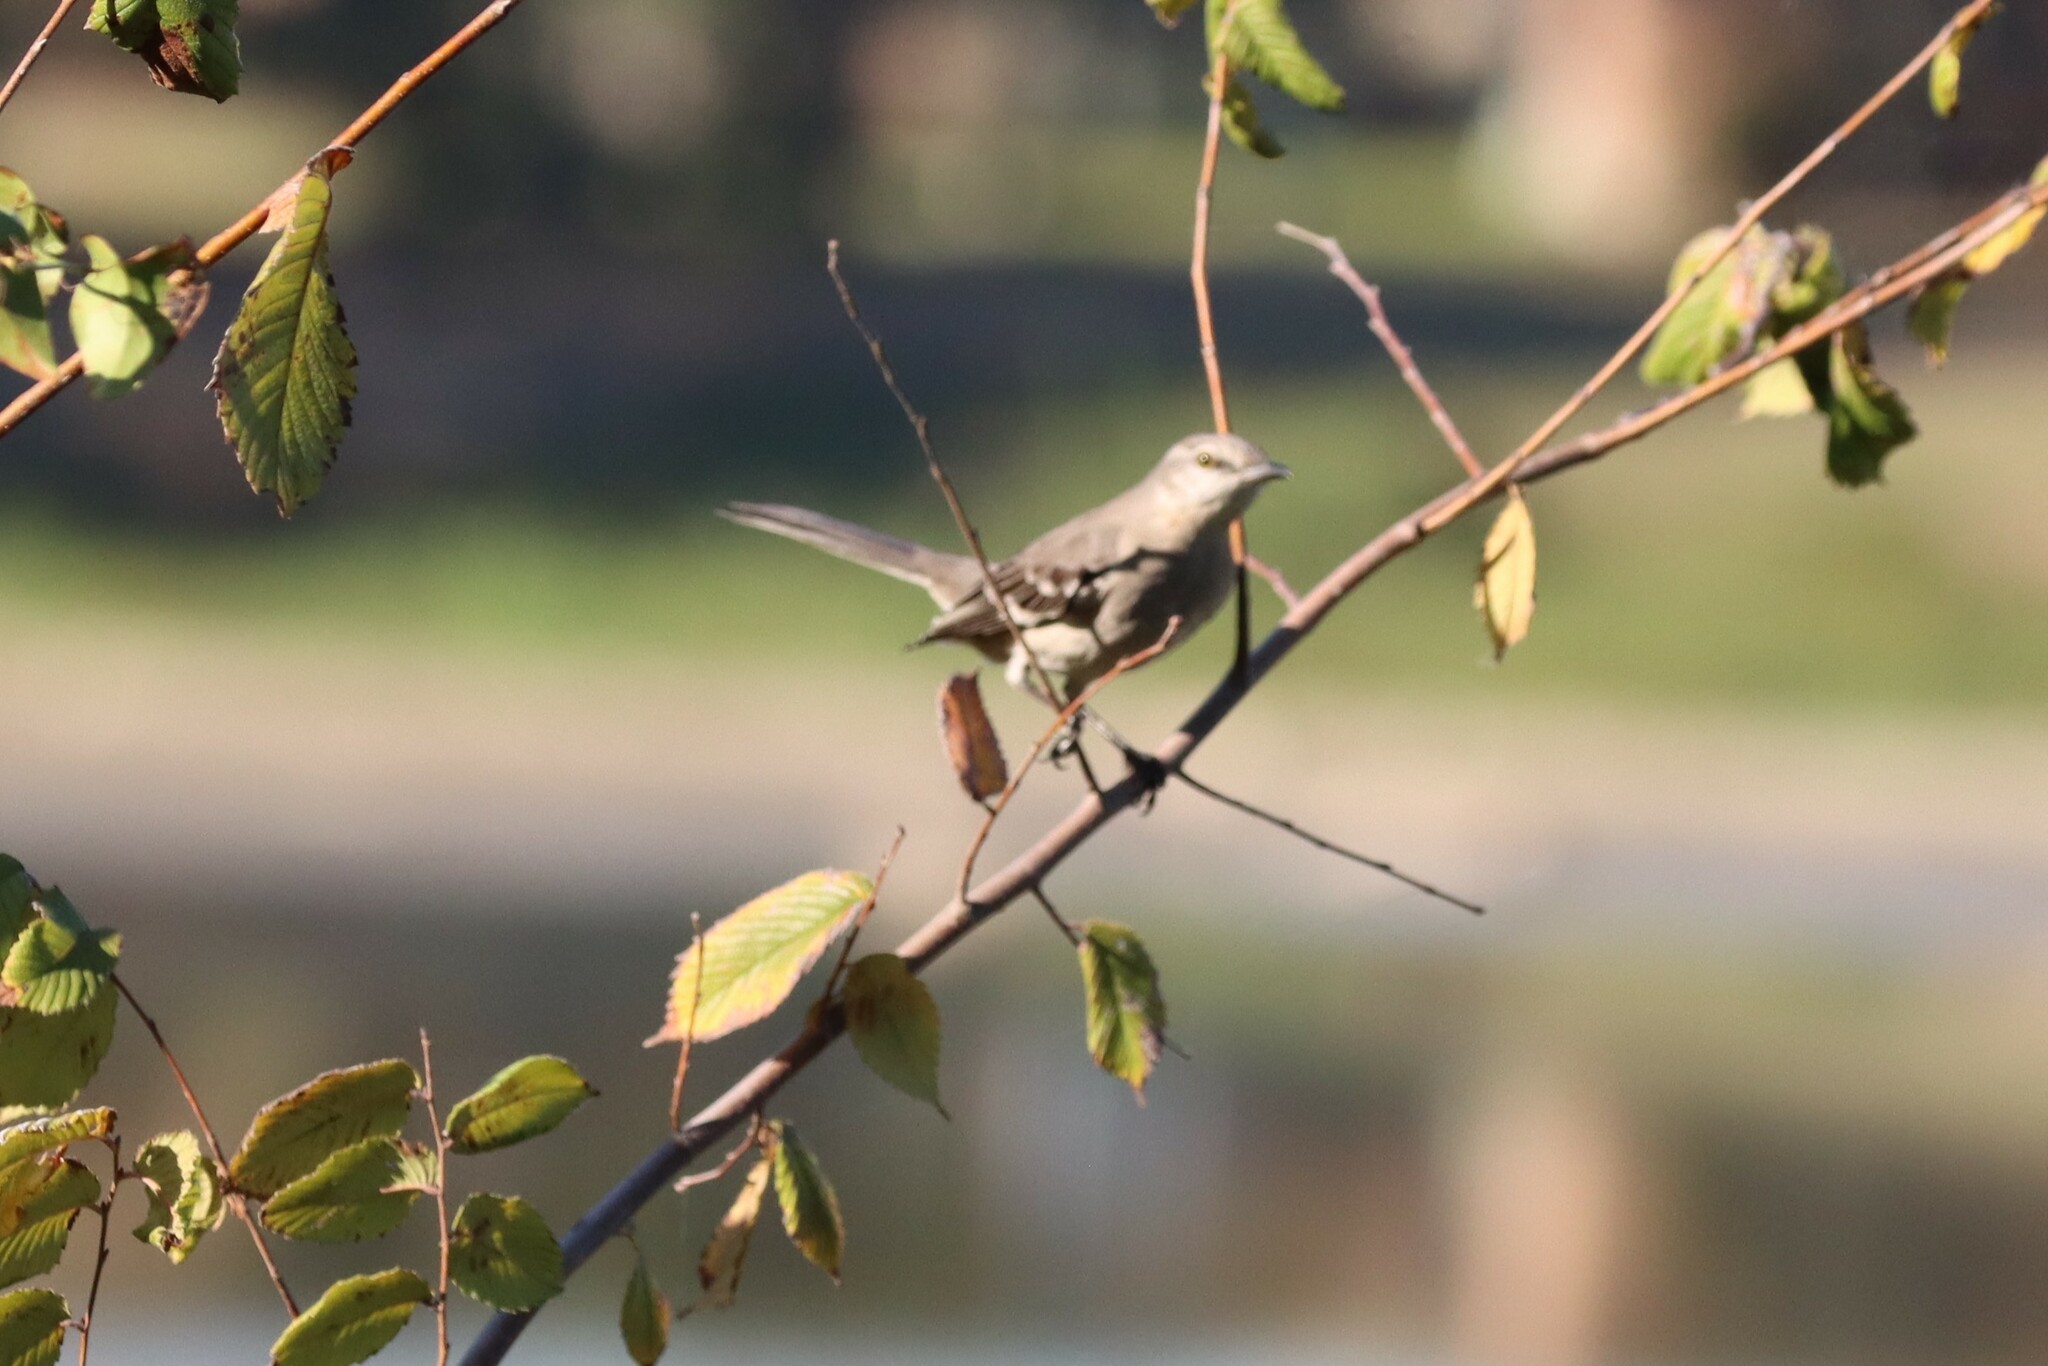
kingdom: Animalia
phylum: Chordata
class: Aves
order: Passeriformes
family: Mimidae
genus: Mimus
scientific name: Mimus polyglottos
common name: Northern mockingbird
